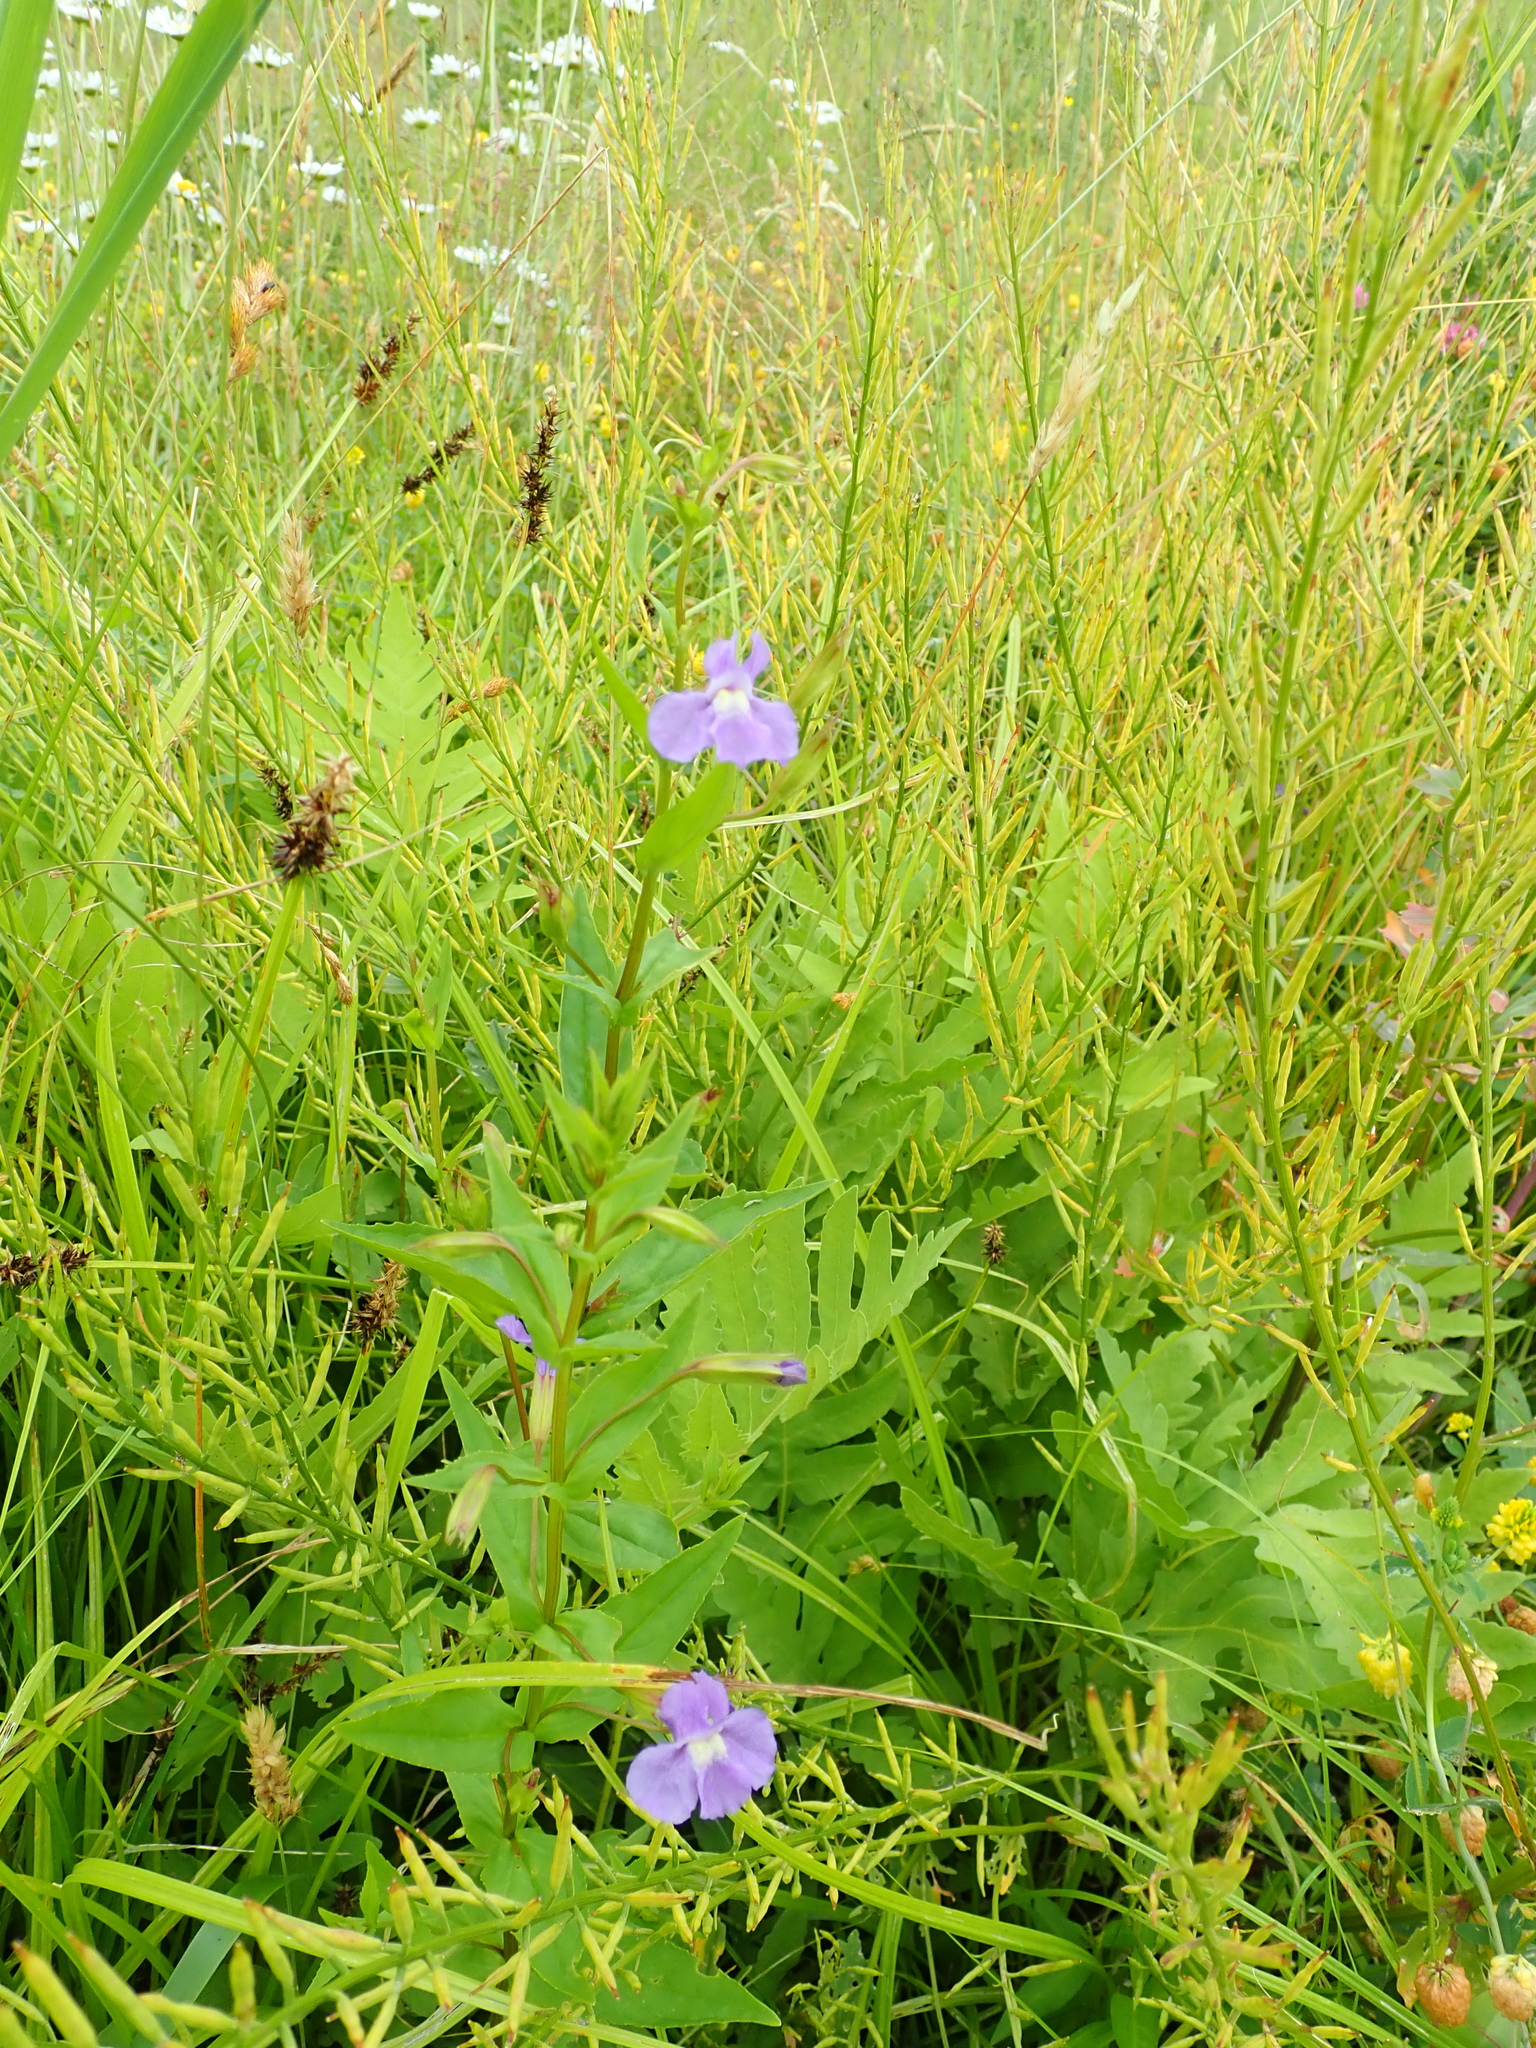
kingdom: Plantae
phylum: Tracheophyta
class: Magnoliopsida
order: Lamiales
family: Phrymaceae
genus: Mimulus
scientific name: Mimulus ringens
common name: Allegheny monkeyflower
